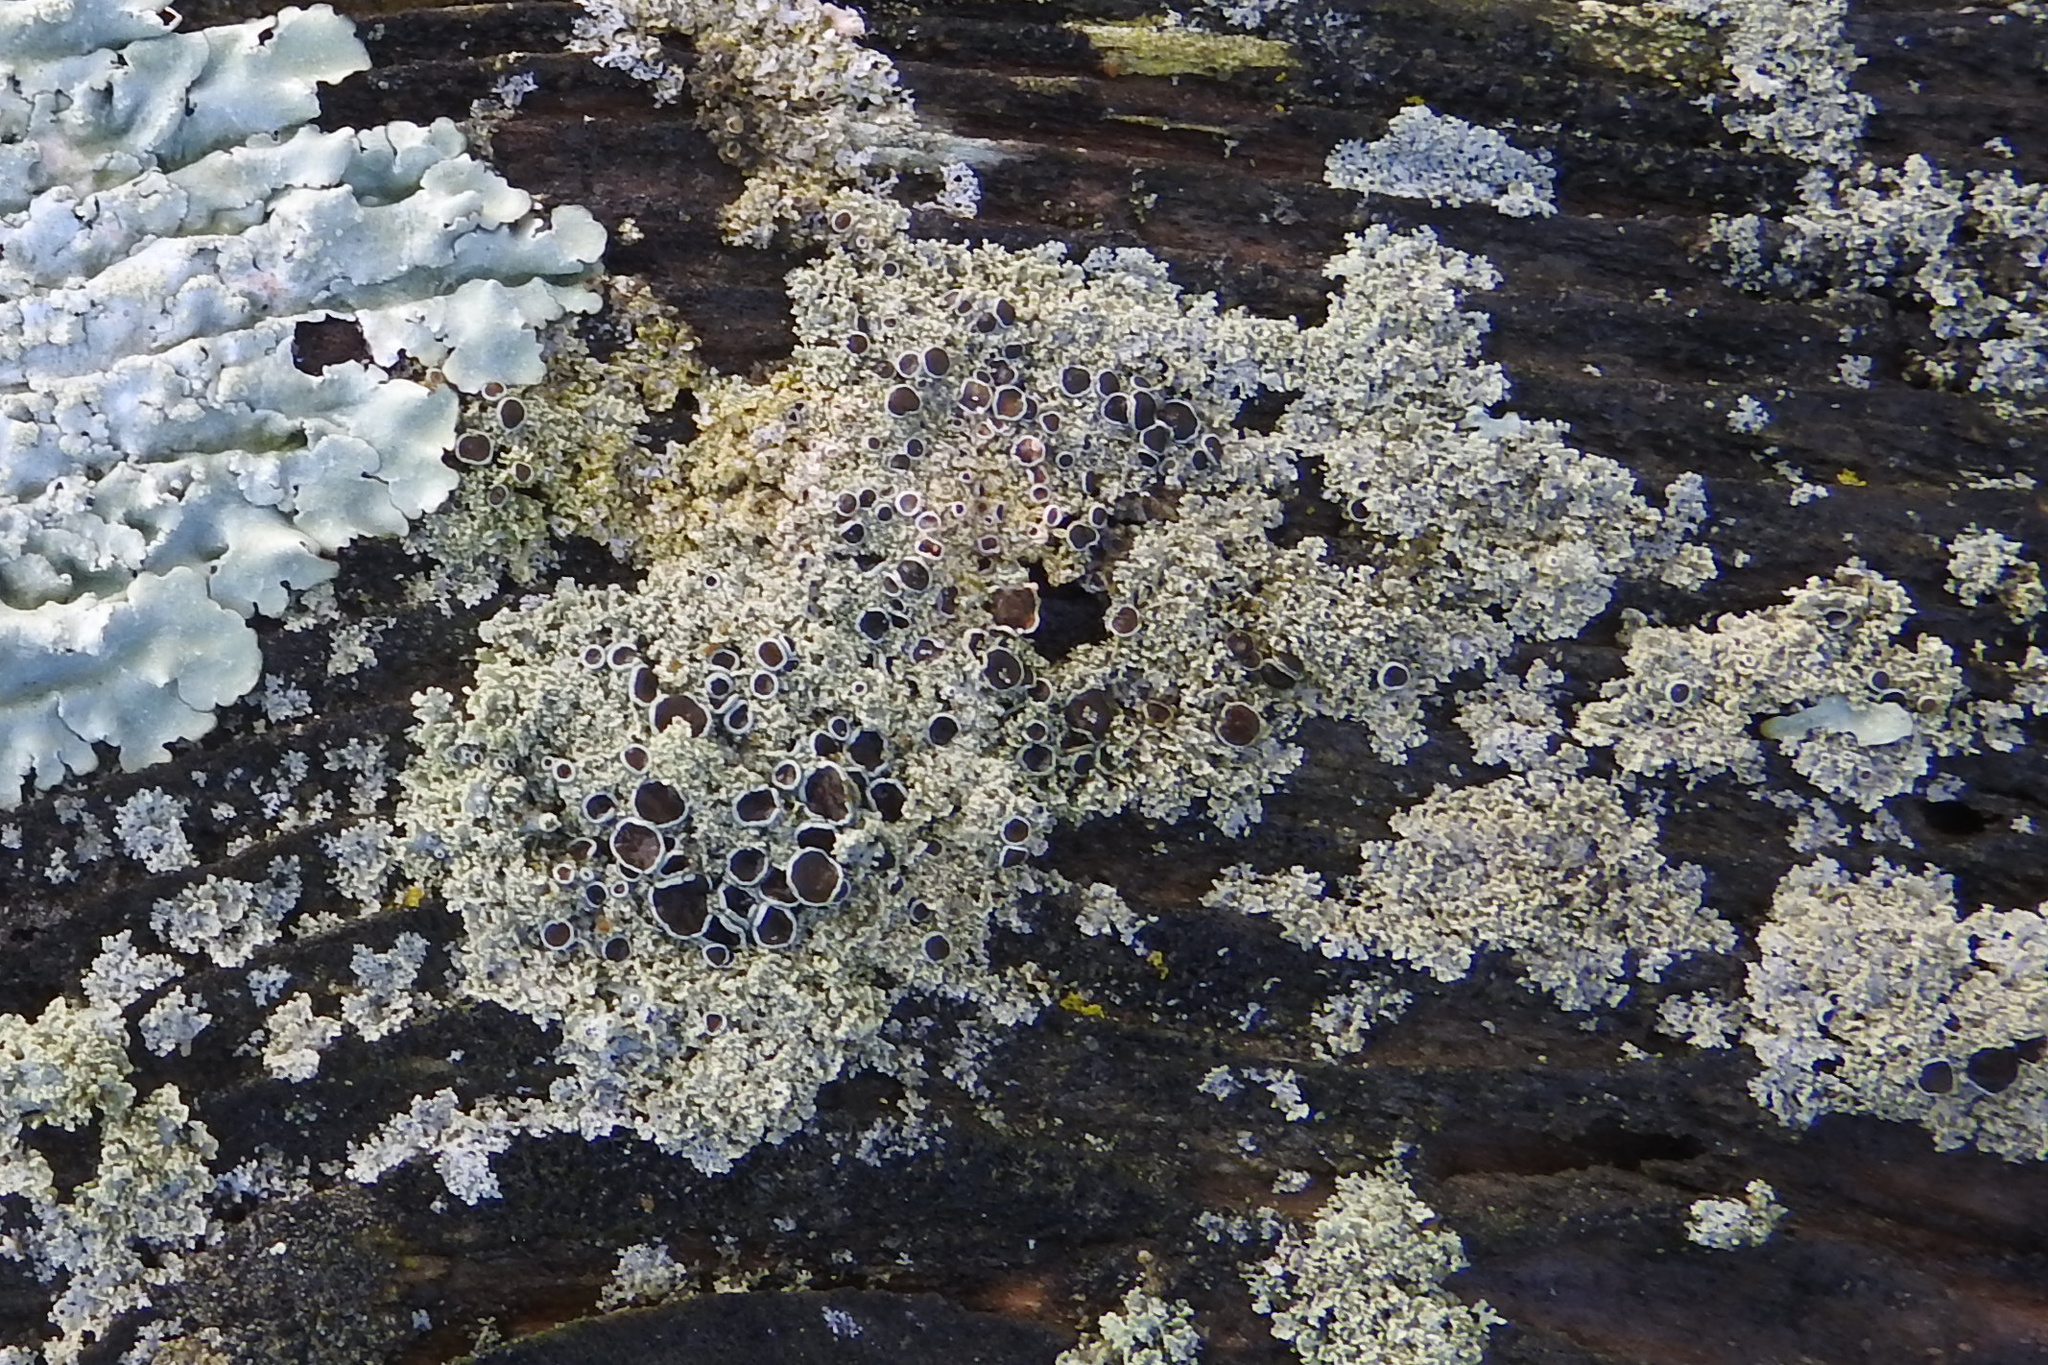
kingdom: Fungi
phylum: Ascomycota
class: Lecanoromycetes
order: Caliciales
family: Physciaceae
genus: Physcia
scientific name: Physcia millegrana
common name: Rosette lichen
